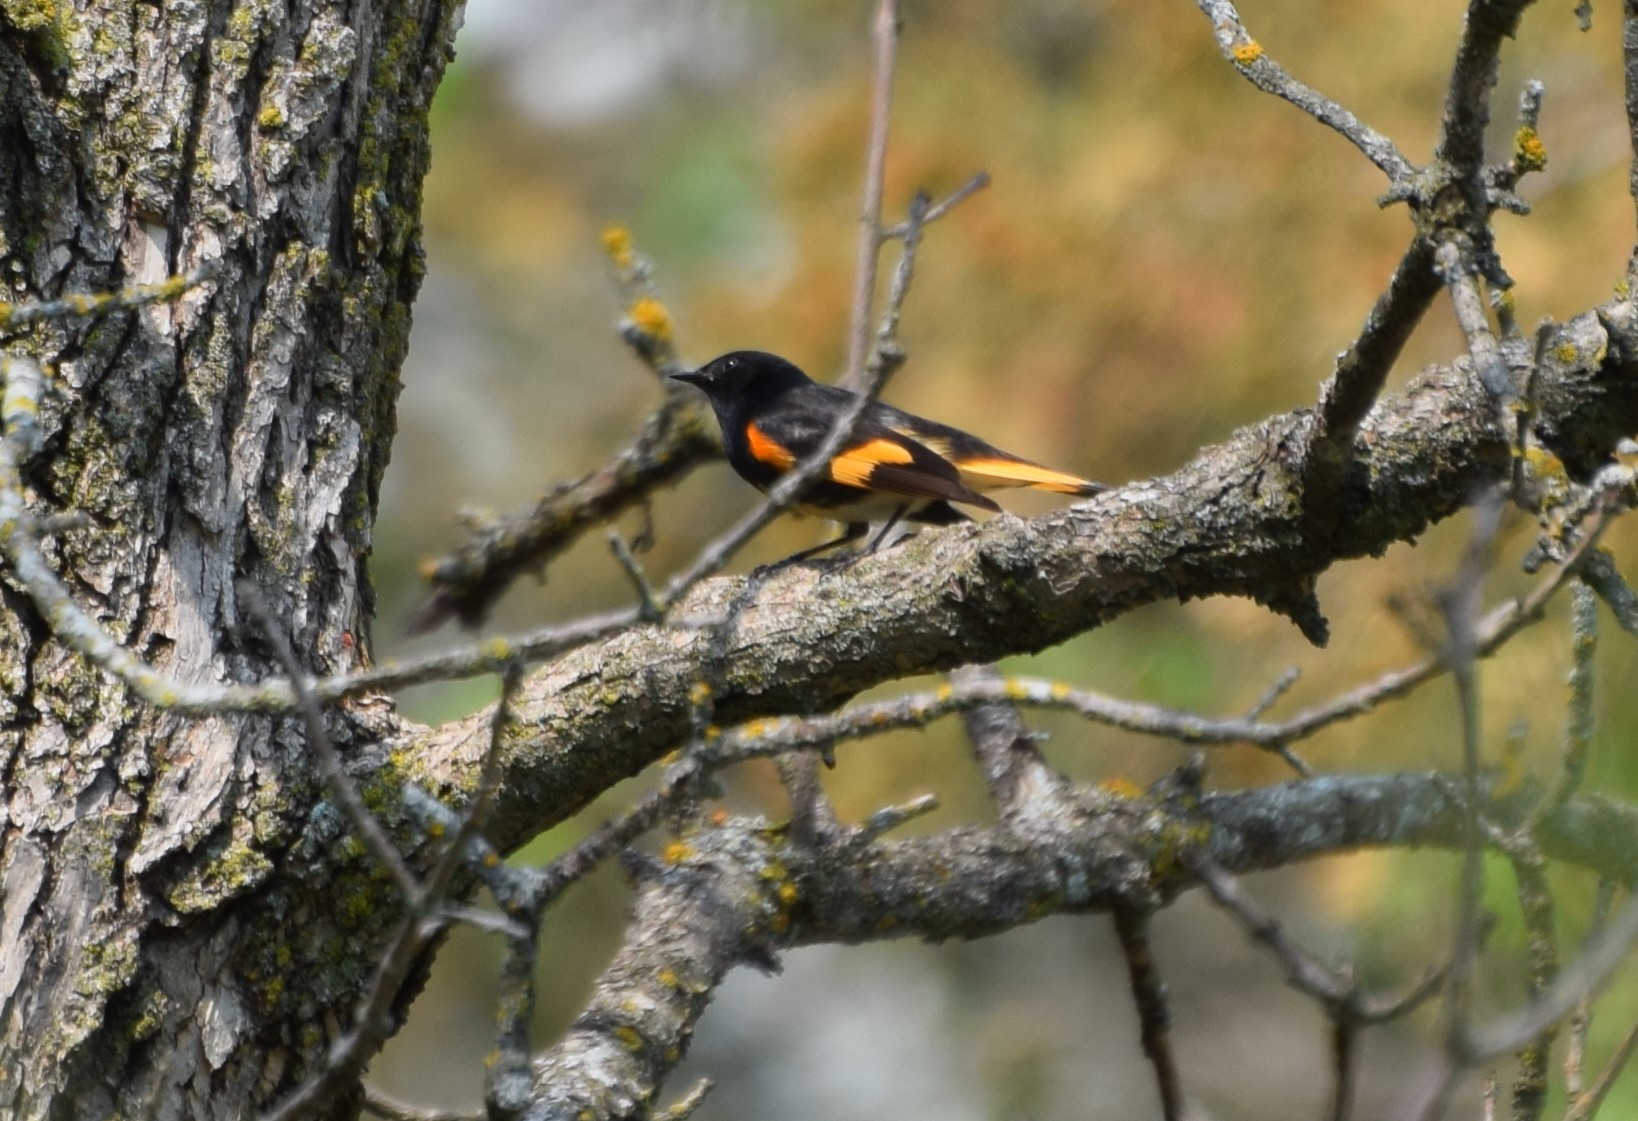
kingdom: Animalia
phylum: Chordata
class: Aves
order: Passeriformes
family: Parulidae
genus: Setophaga
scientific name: Setophaga ruticilla
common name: American redstart
